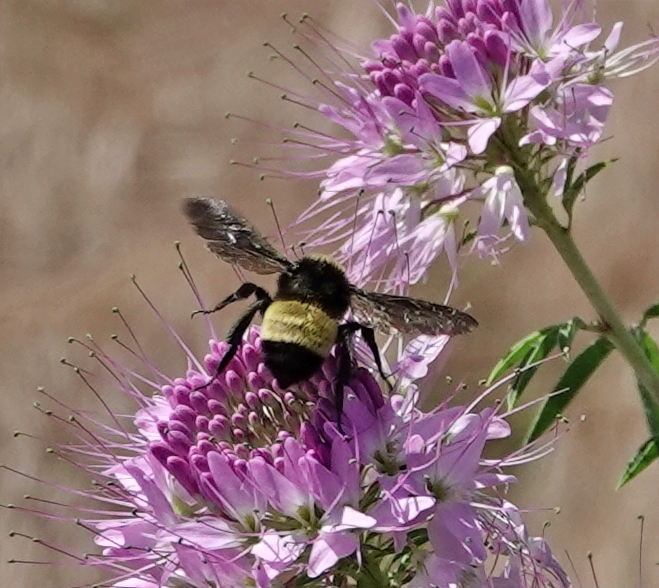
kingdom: Animalia
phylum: Arthropoda
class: Insecta
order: Hymenoptera
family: Apidae
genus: Bombus
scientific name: Bombus pensylvanicus
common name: Bumble bee
